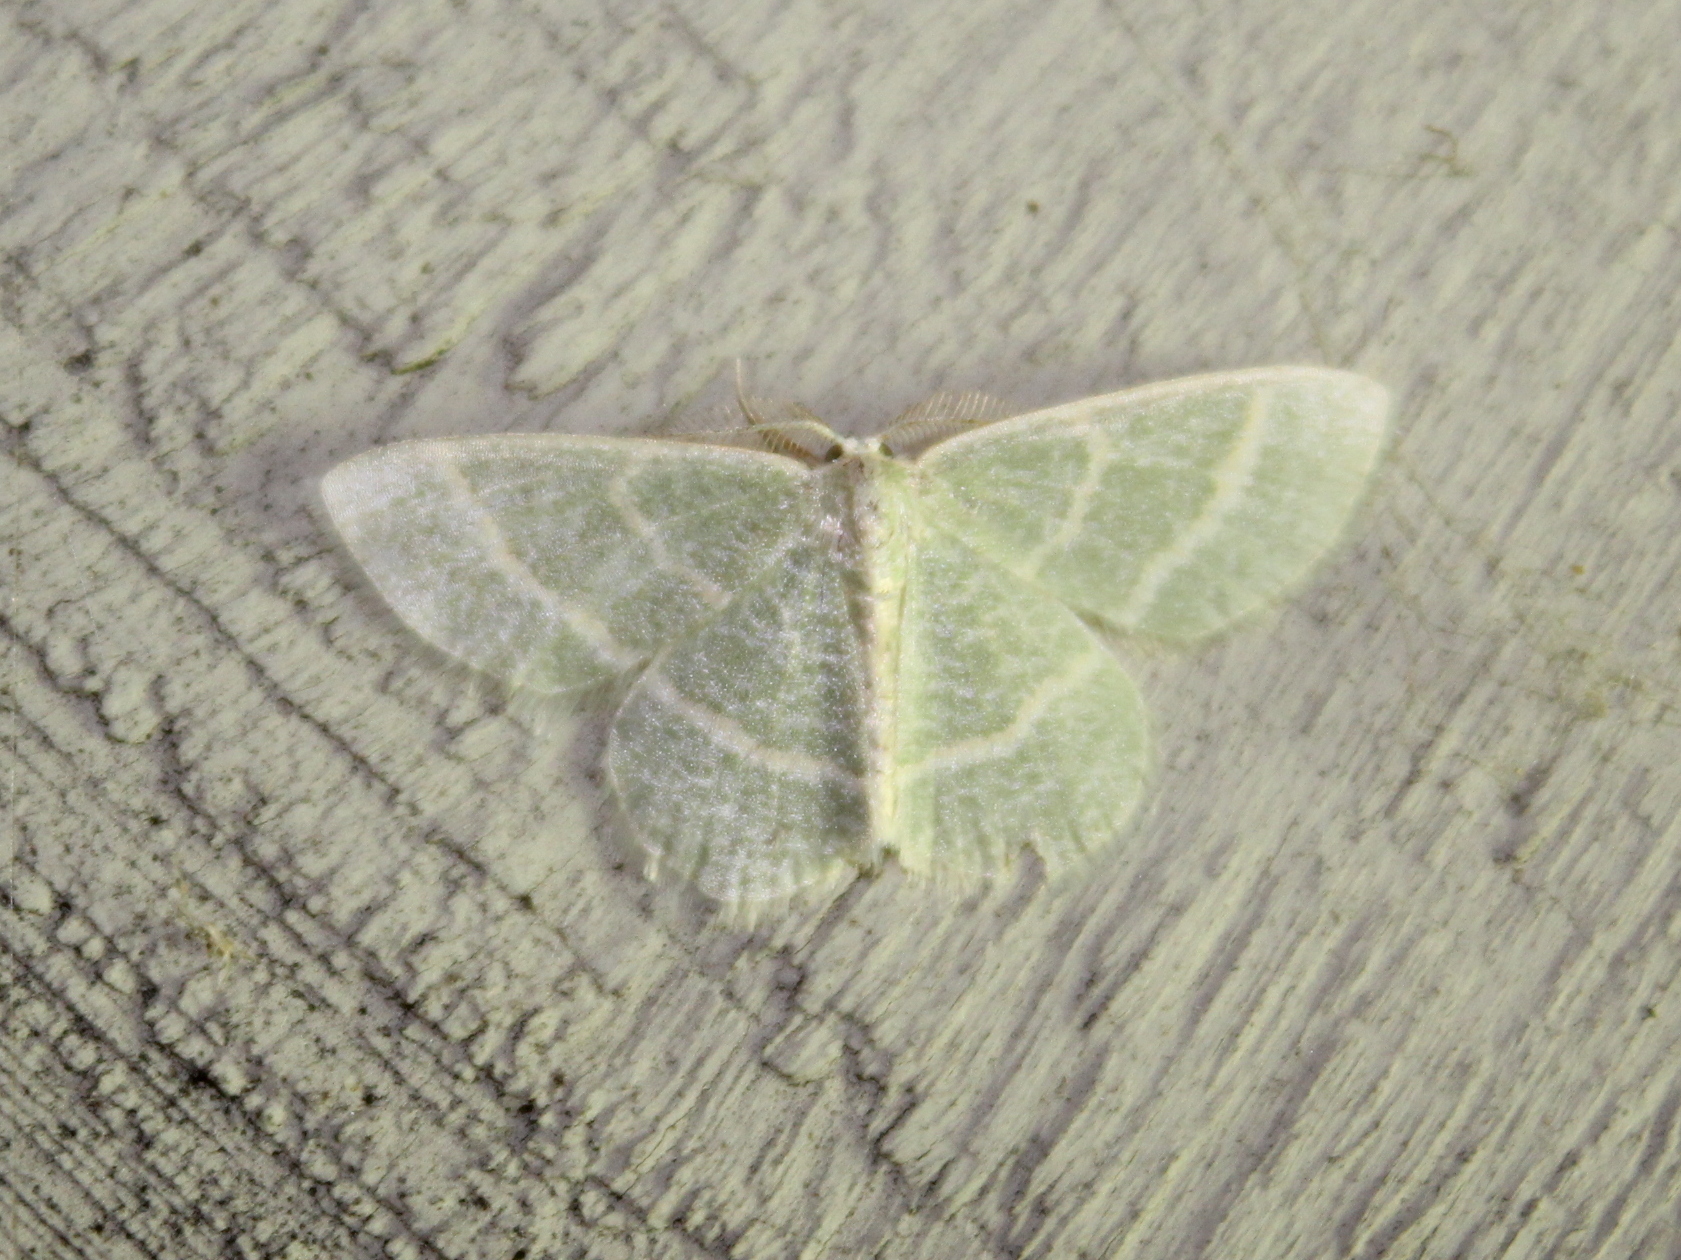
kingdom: Animalia
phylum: Arthropoda
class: Insecta
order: Lepidoptera
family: Geometridae
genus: Chlorochlamys
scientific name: Chlorochlamys chloroleucaria
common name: Blackberry looper
